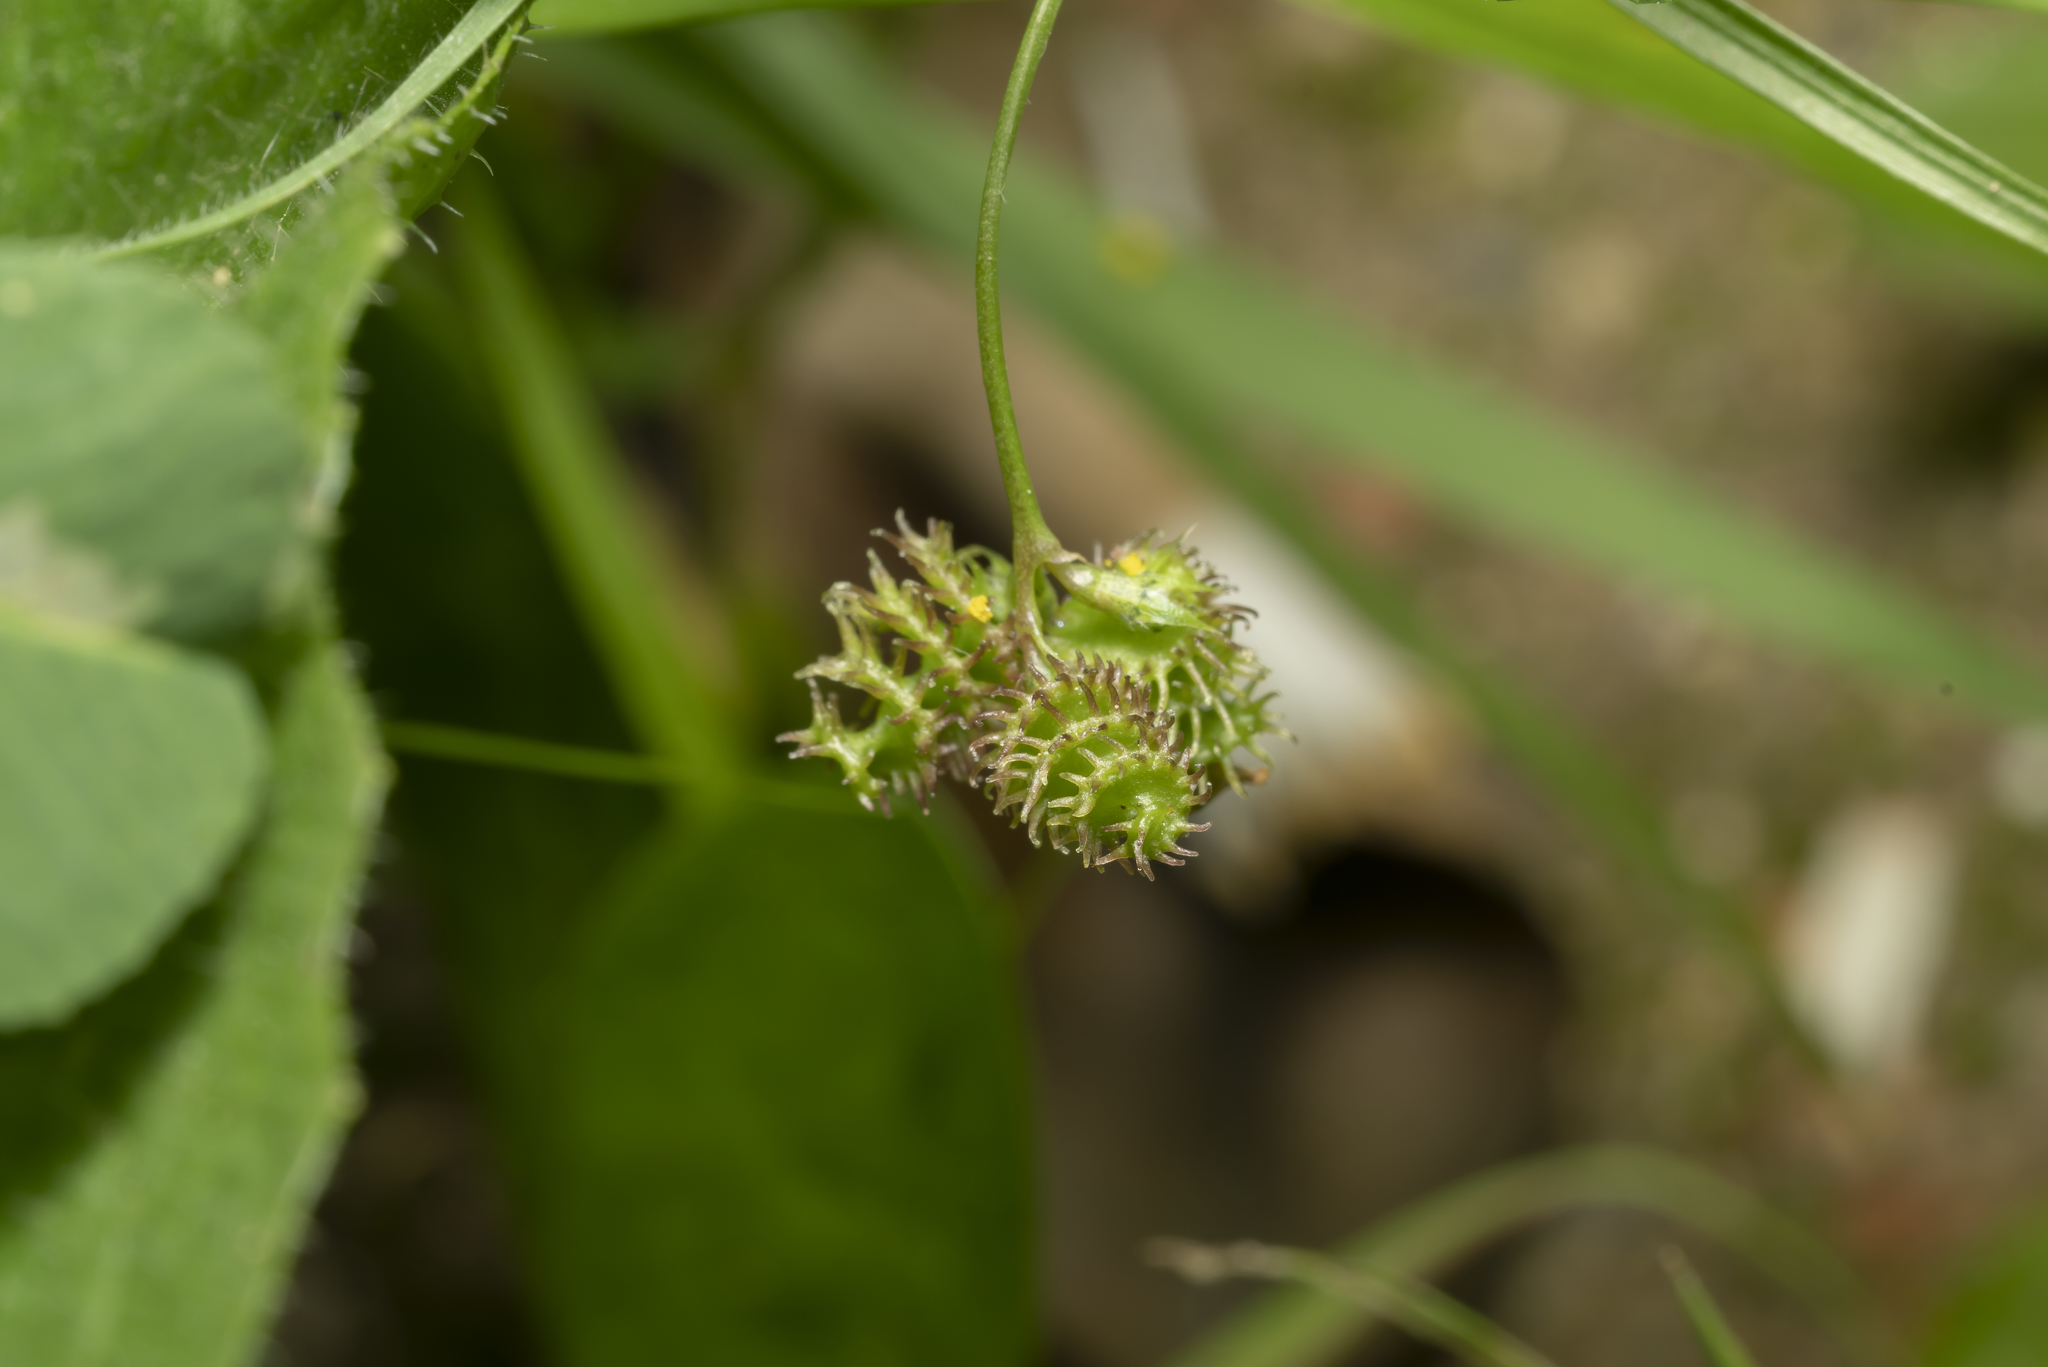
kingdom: Plantae
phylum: Tracheophyta
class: Magnoliopsida
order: Fabales
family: Fabaceae
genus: Medicago
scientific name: Medicago polymorpha
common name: Burclover
